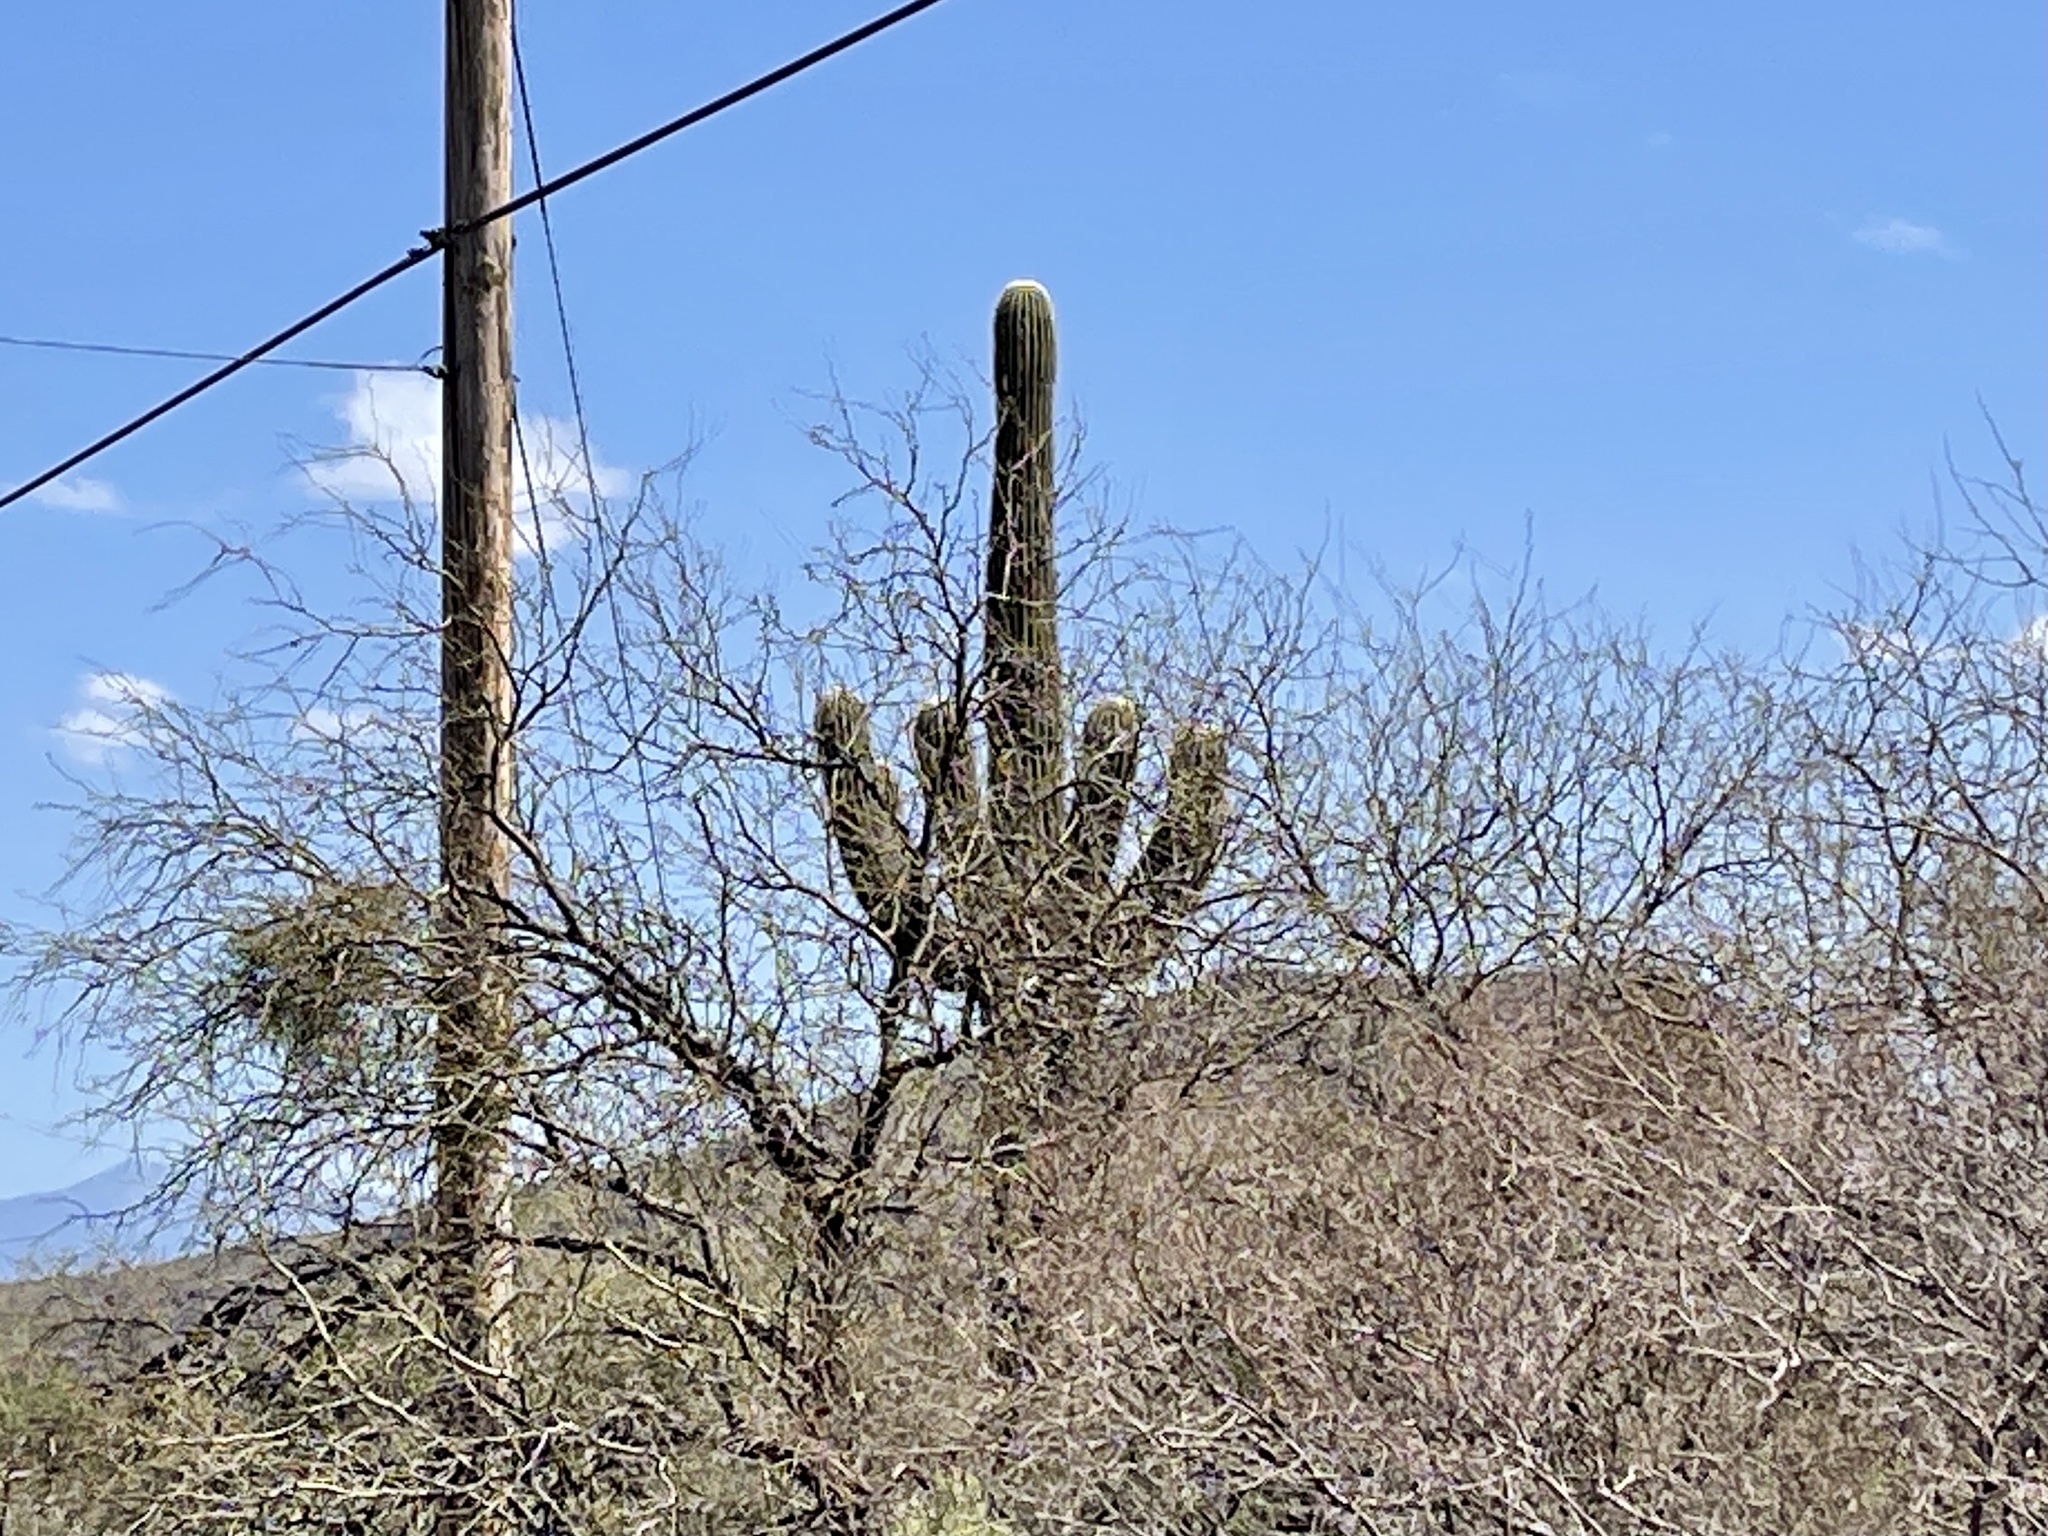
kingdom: Plantae
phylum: Tracheophyta
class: Magnoliopsida
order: Caryophyllales
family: Cactaceae
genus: Carnegiea
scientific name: Carnegiea gigantea
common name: Saguaro
